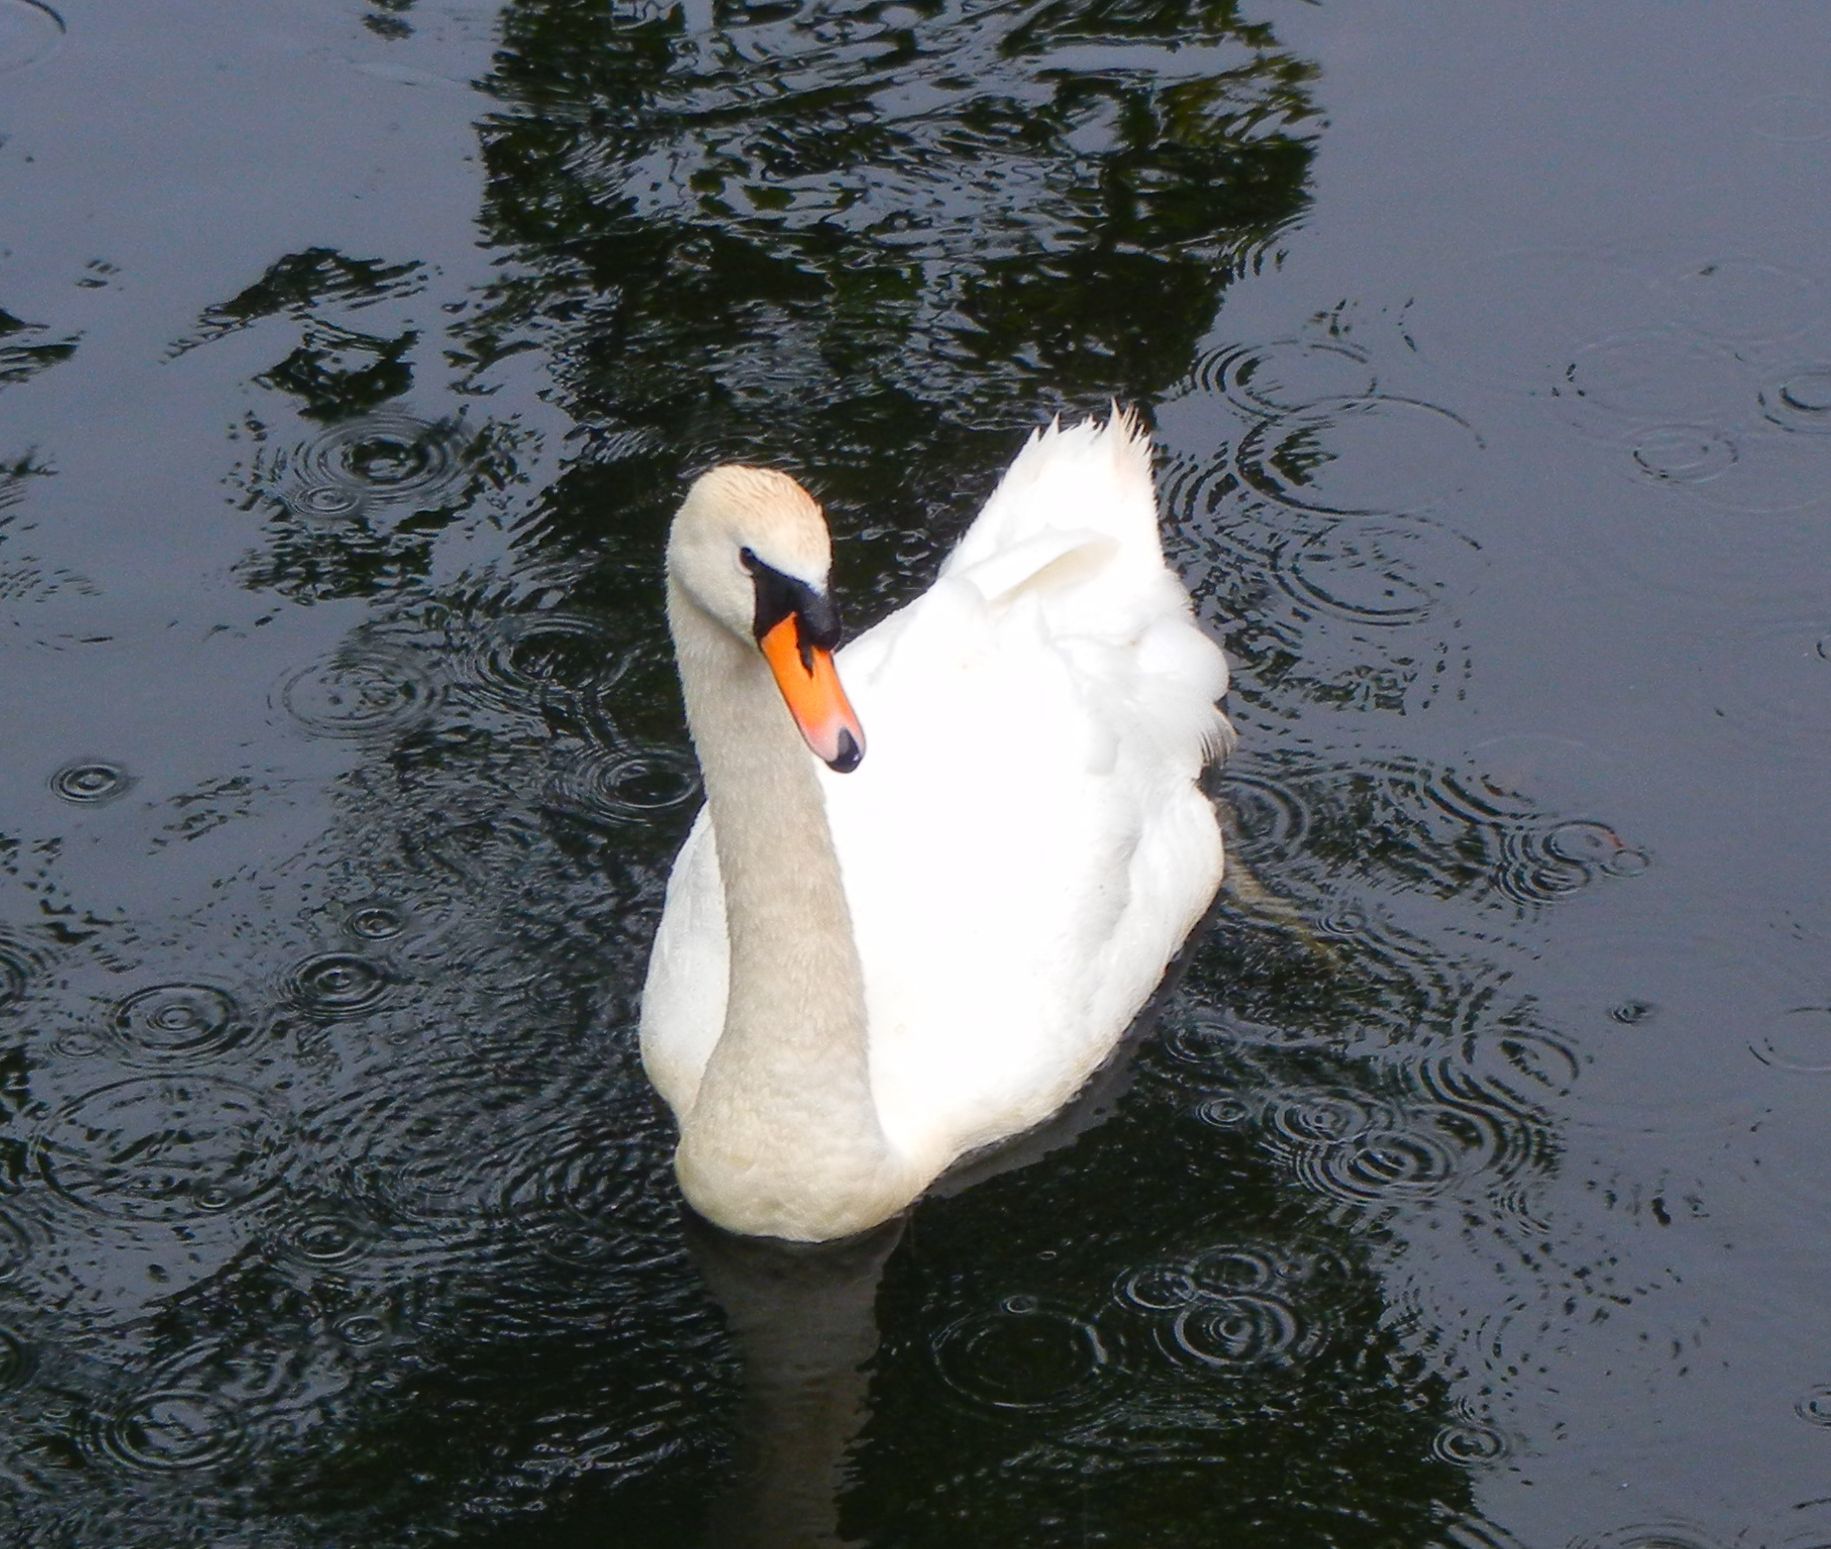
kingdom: Animalia
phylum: Chordata
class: Aves
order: Anseriformes
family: Anatidae
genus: Cygnus
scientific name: Cygnus olor
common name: Mute swan
